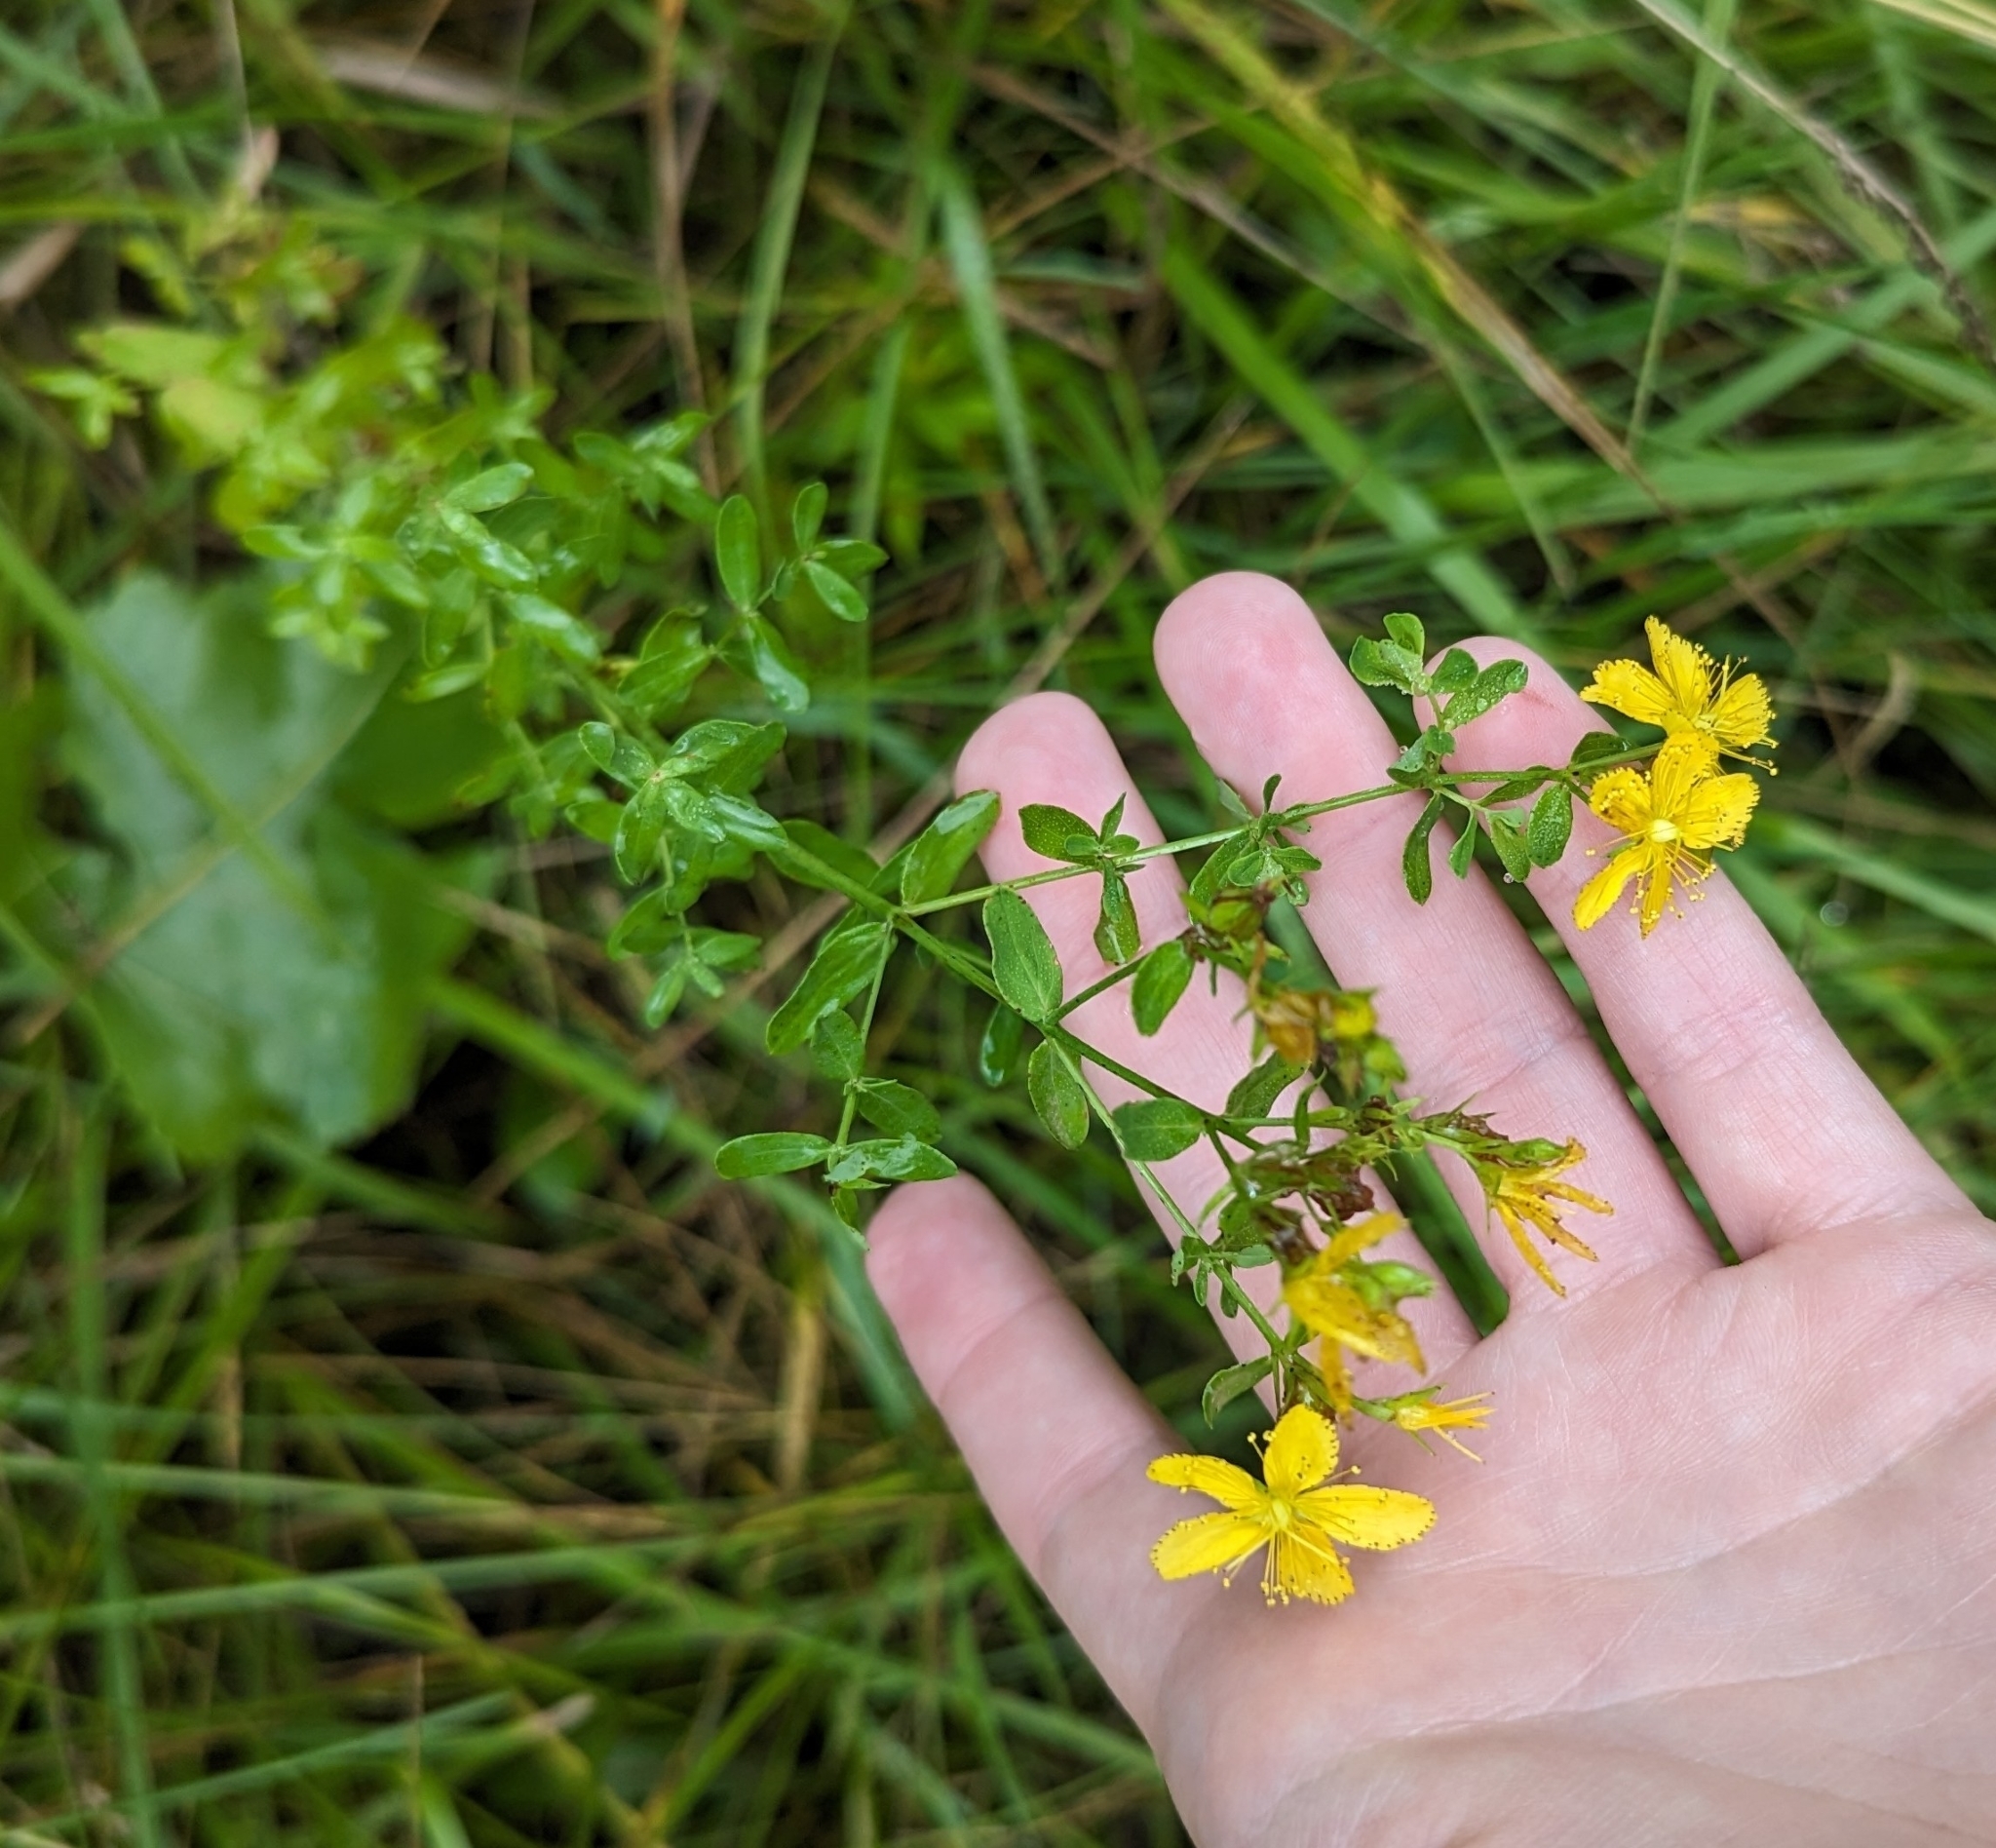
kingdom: Plantae
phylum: Tracheophyta
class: Magnoliopsida
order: Malpighiales
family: Hypericaceae
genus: Hypericum
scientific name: Hypericum perforatum
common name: Common st. johnswort
